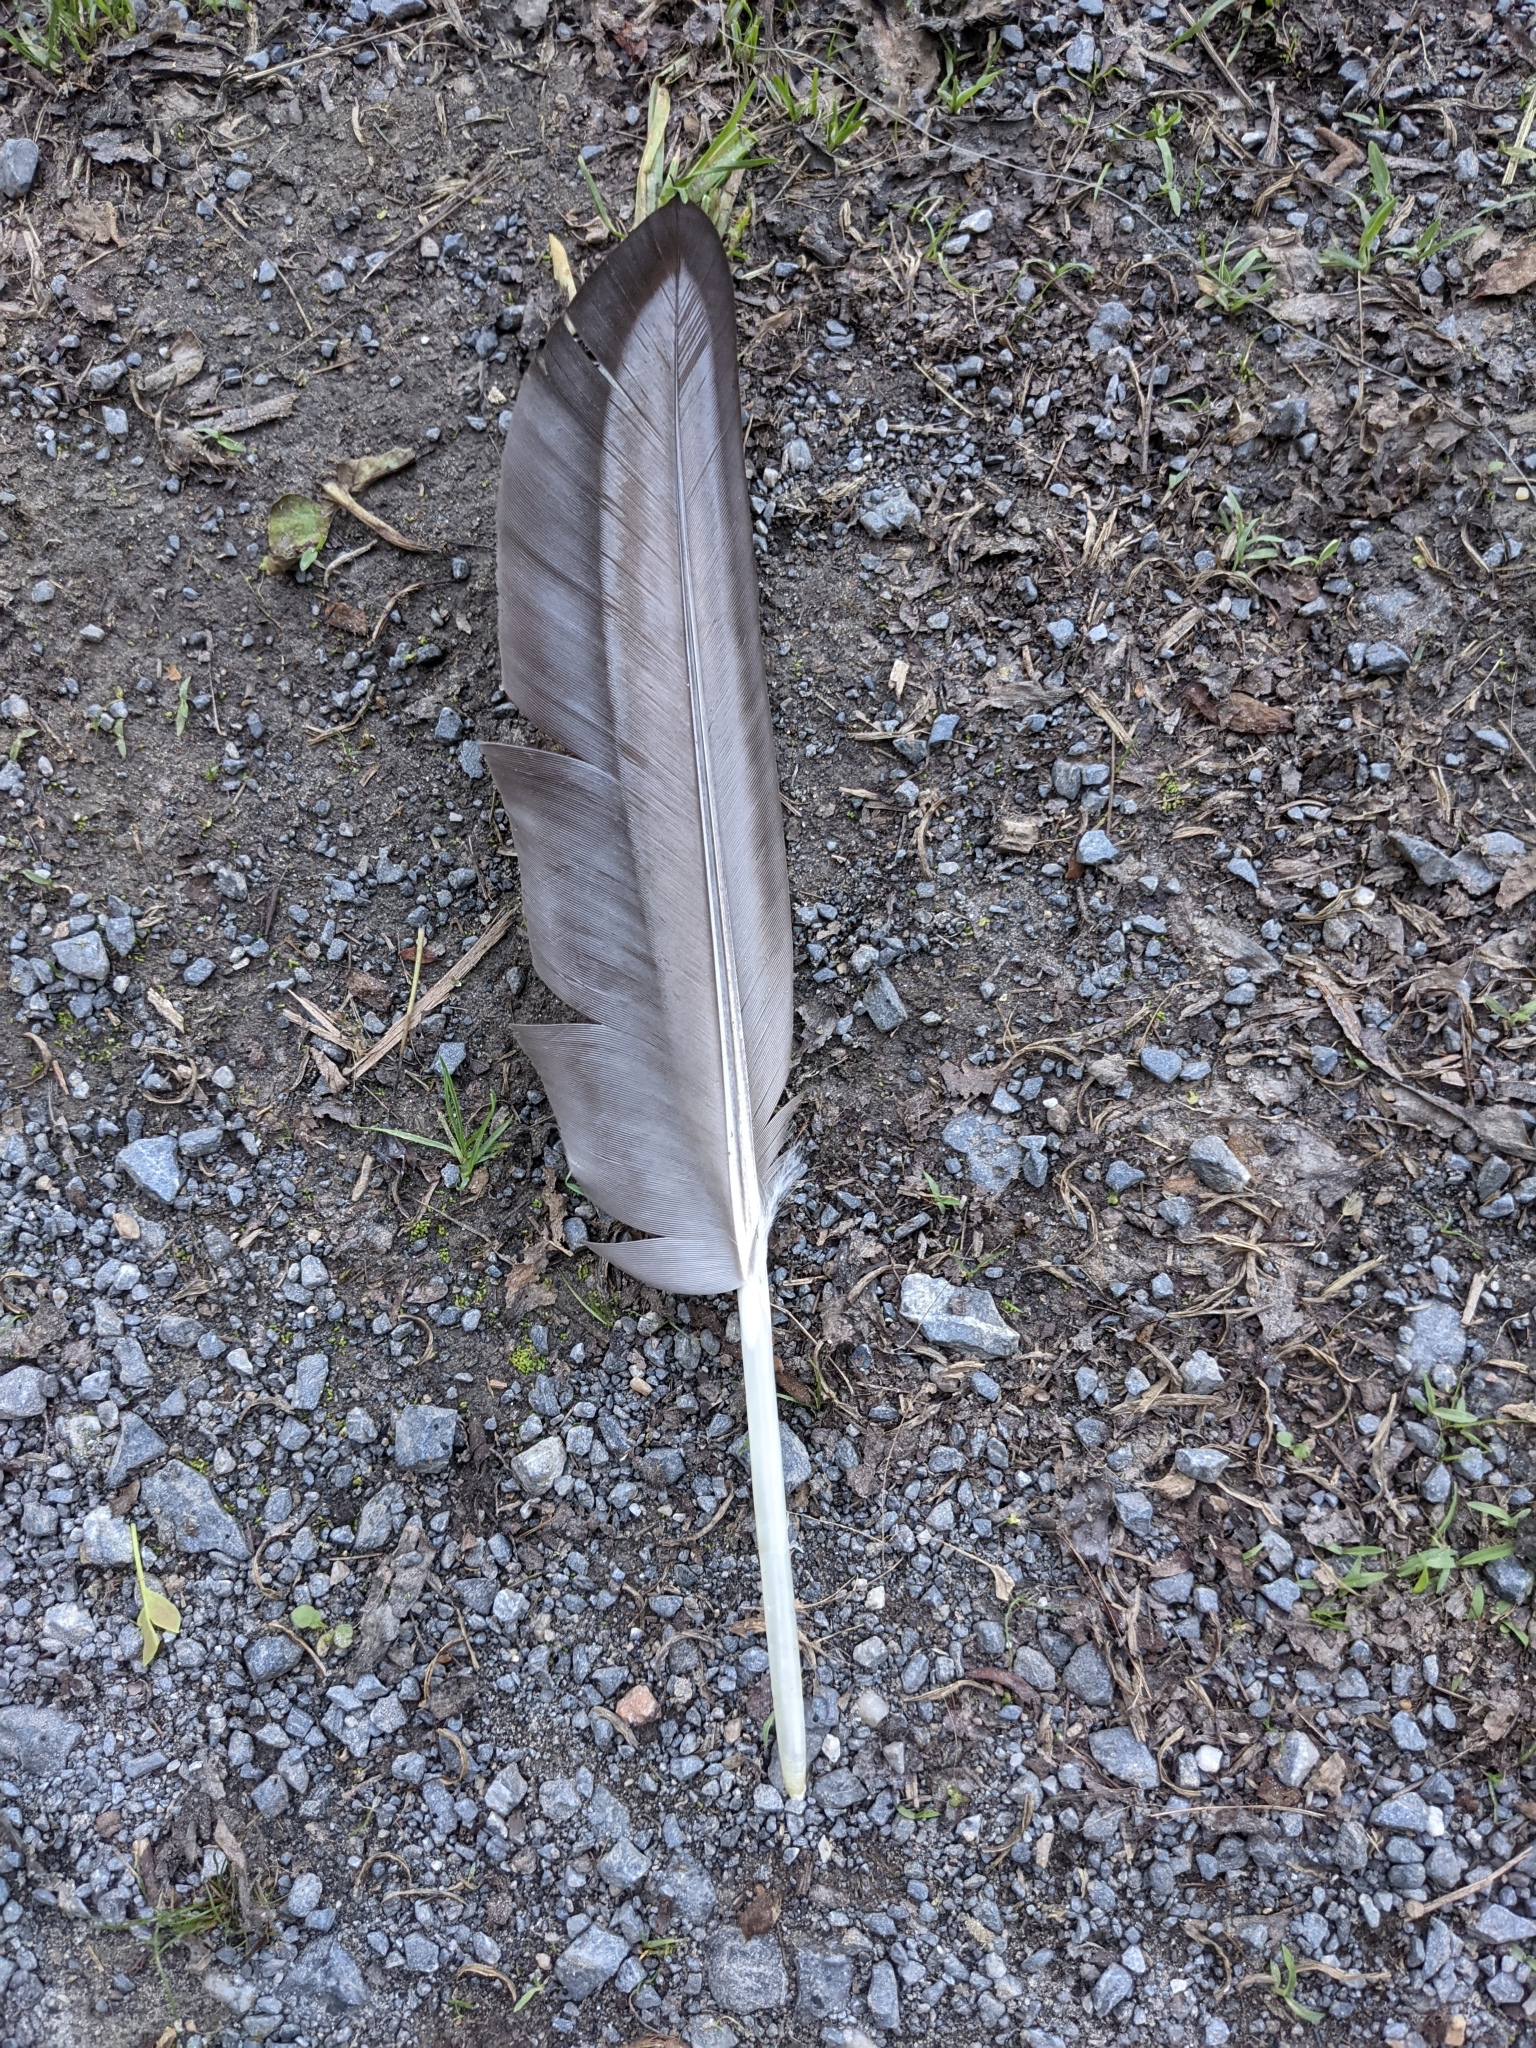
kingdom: Animalia
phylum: Chordata
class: Aves
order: Anseriformes
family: Anatidae
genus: Branta
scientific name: Branta canadensis
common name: Canada goose
